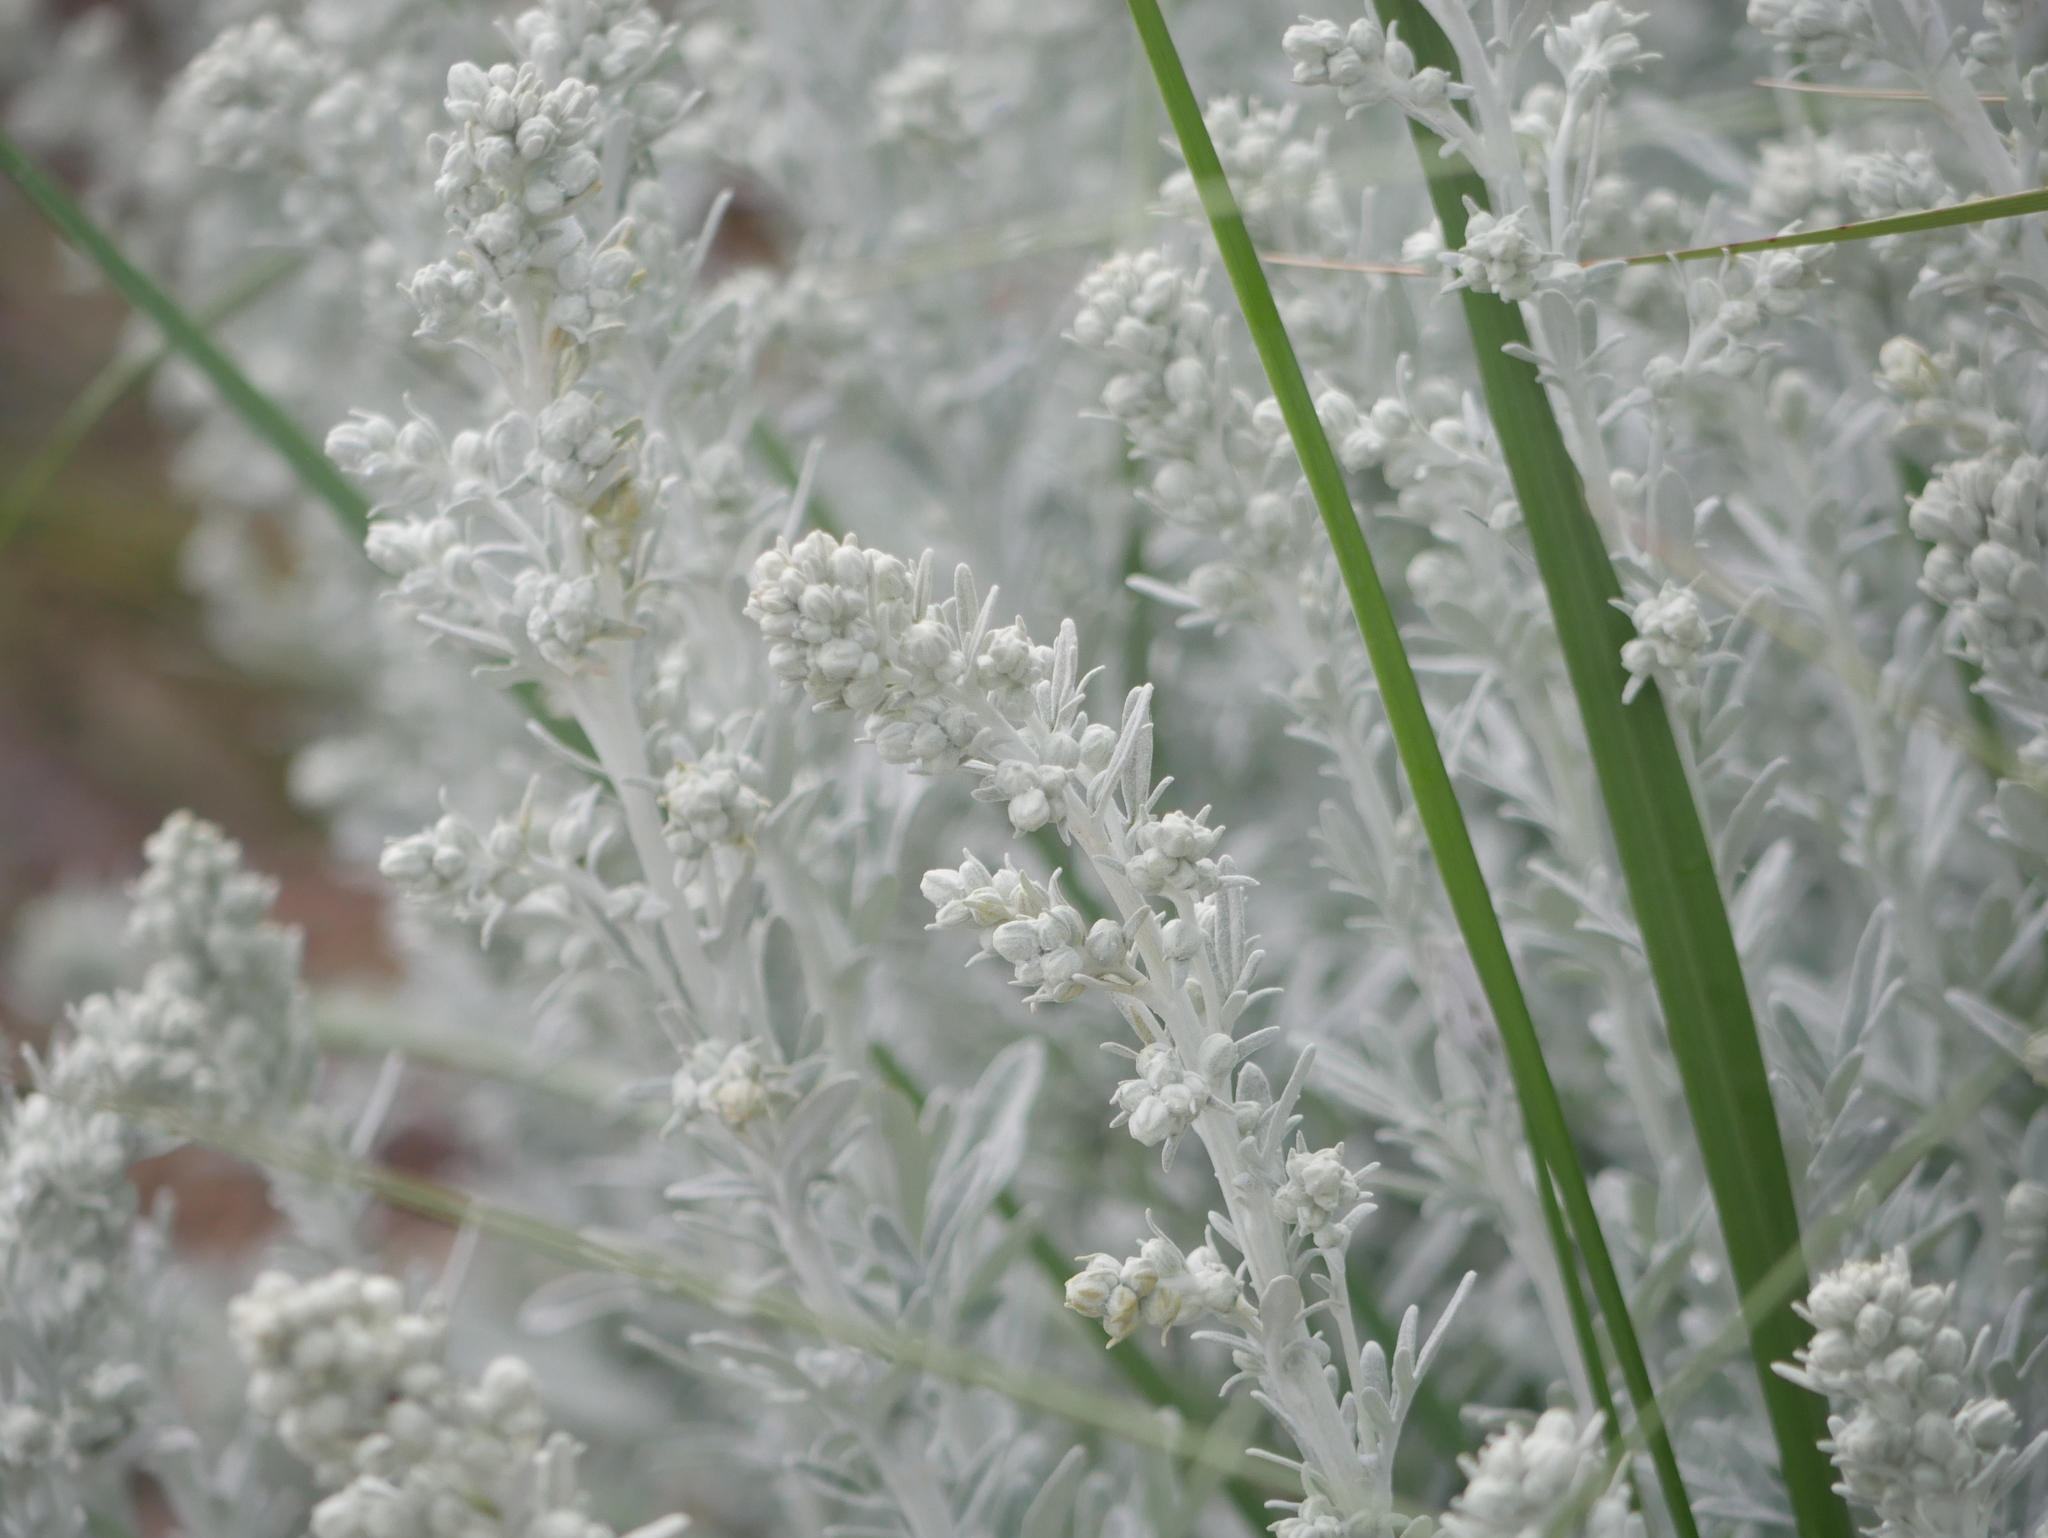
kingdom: Plantae
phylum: Tracheophyta
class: Magnoliopsida
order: Asterales
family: Asteraceae
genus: Artemisia
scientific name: Artemisia stelleriana
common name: Beach wormwood
